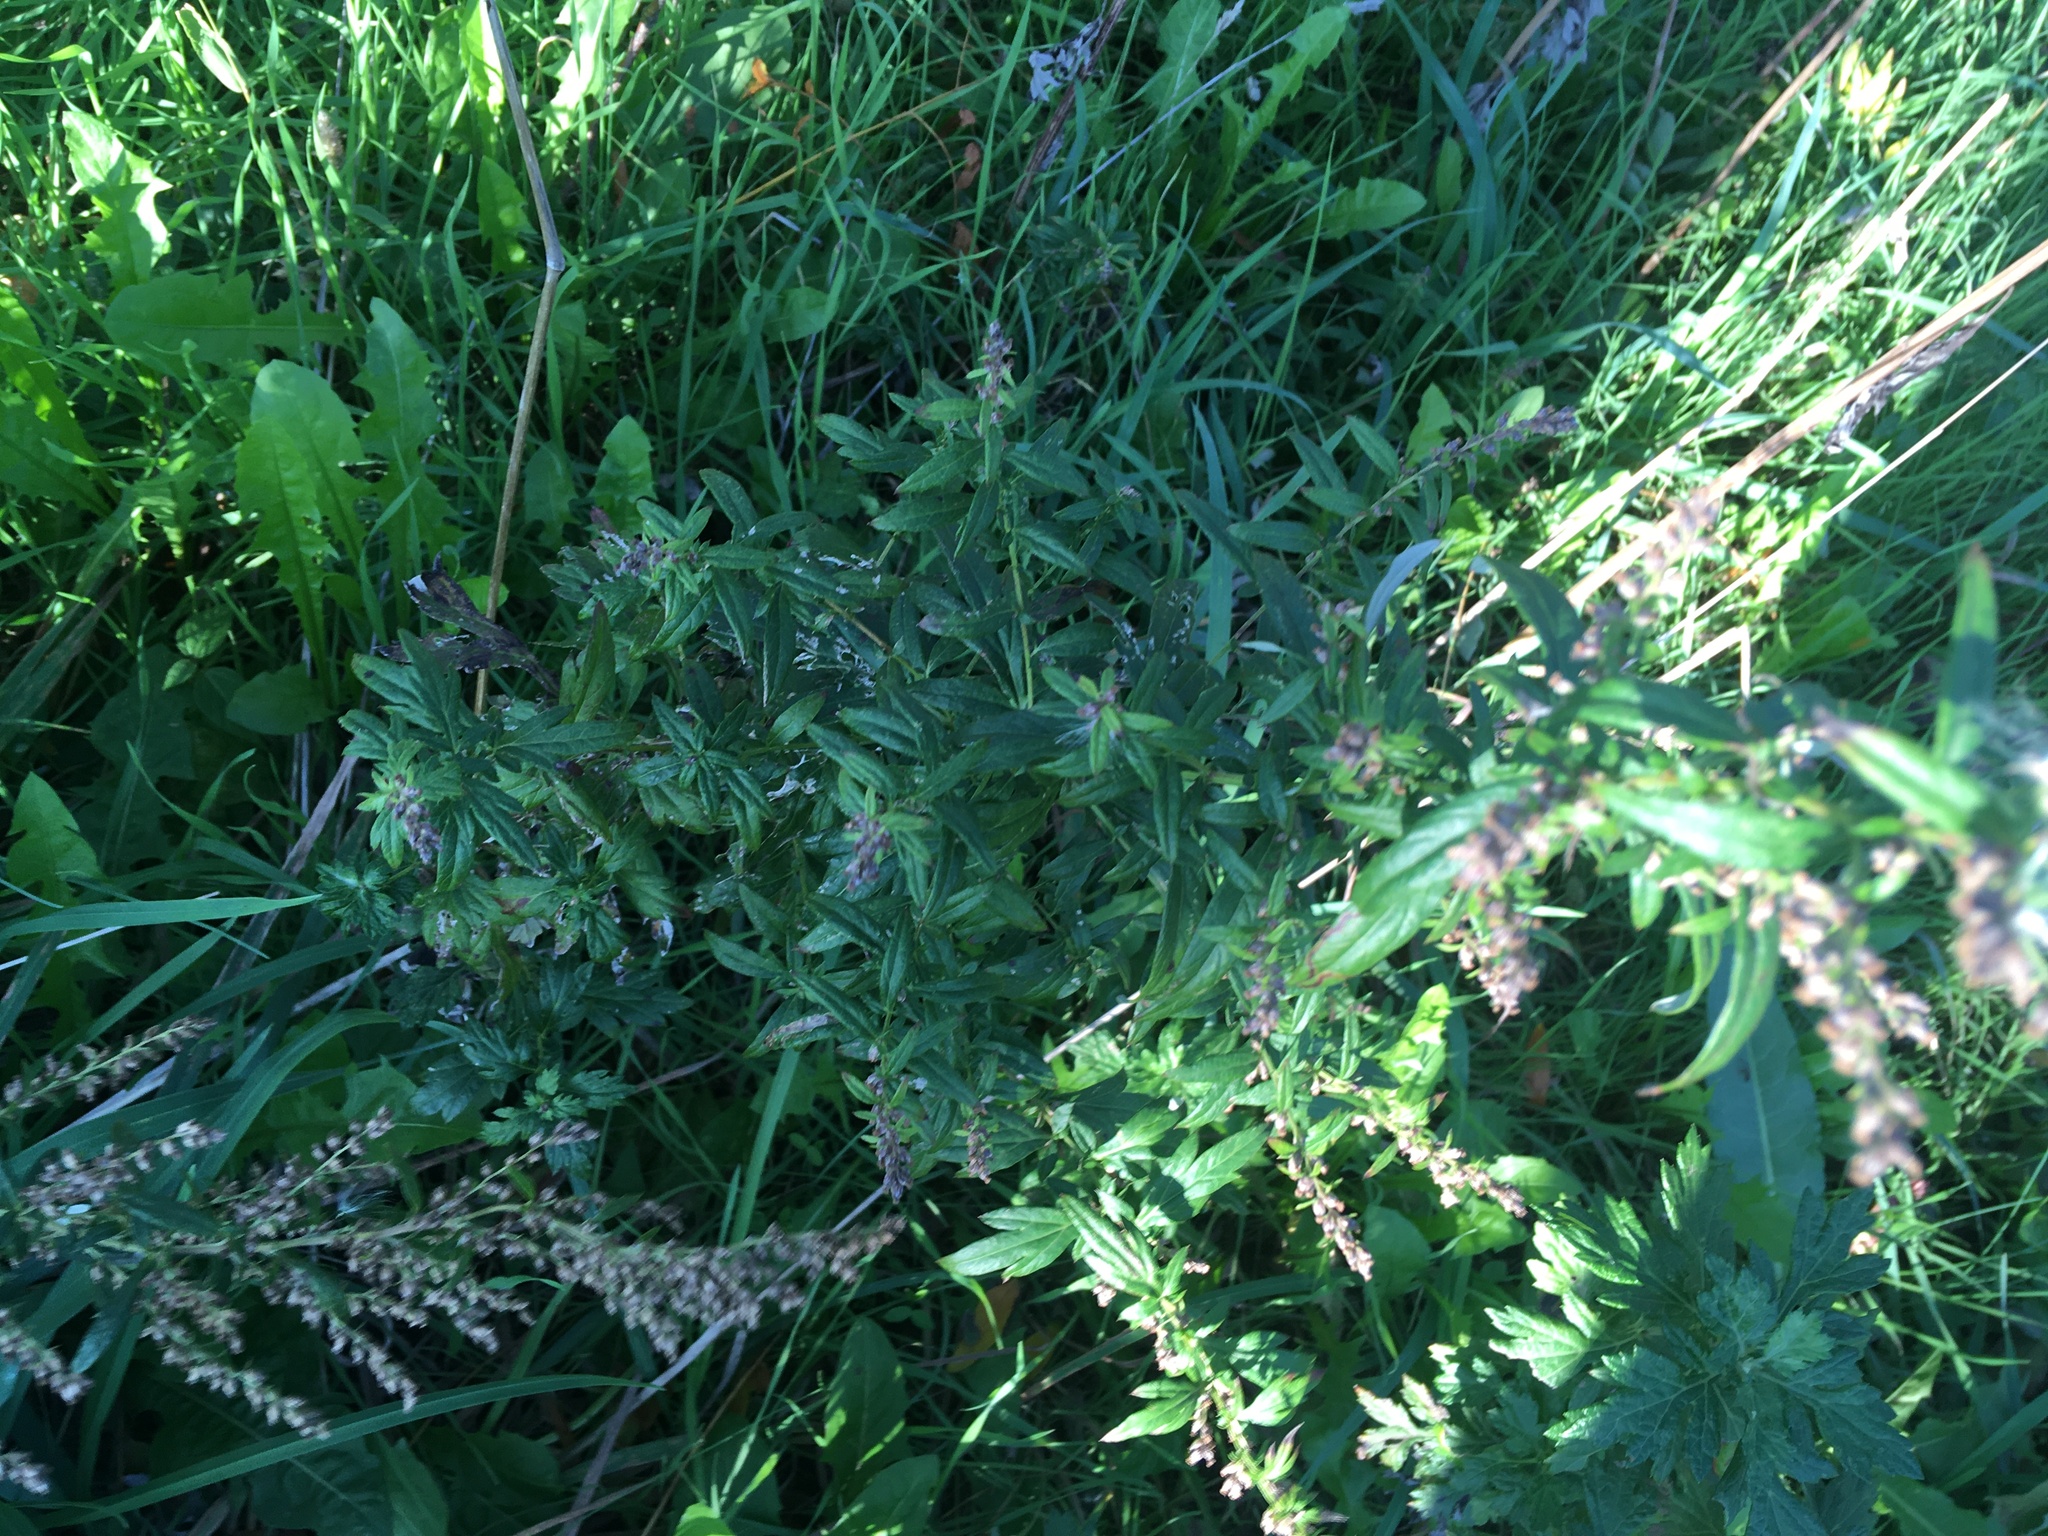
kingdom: Plantae
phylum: Tracheophyta
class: Magnoliopsida
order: Asterales
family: Asteraceae
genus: Artemisia
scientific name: Artemisia vulgaris
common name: Mugwort
